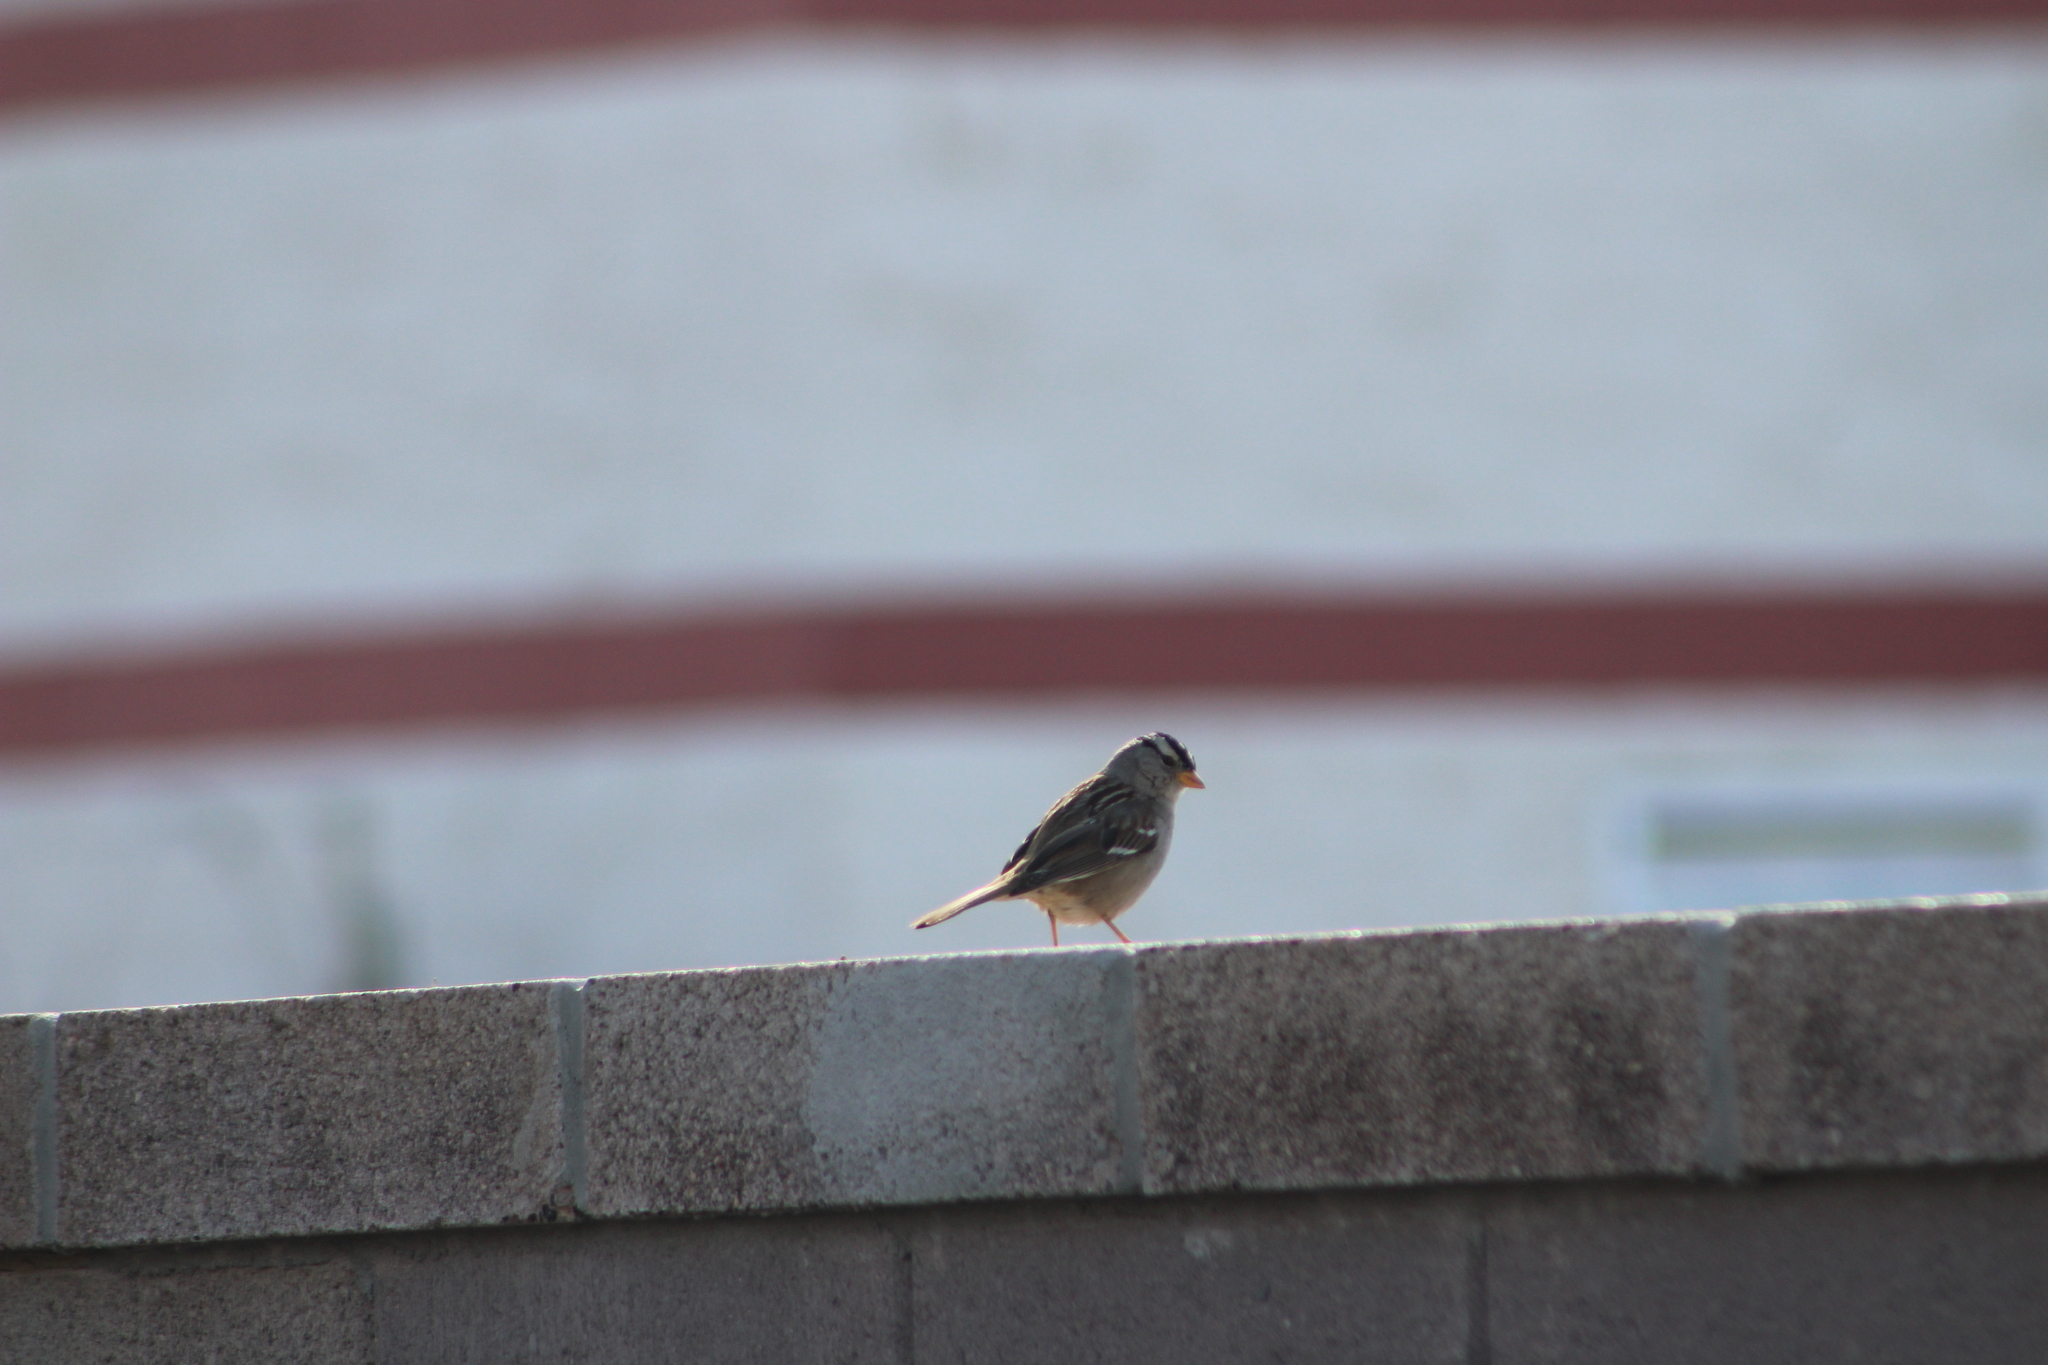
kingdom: Animalia
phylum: Chordata
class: Aves
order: Passeriformes
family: Passerellidae
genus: Zonotrichia
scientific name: Zonotrichia leucophrys
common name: White-crowned sparrow
